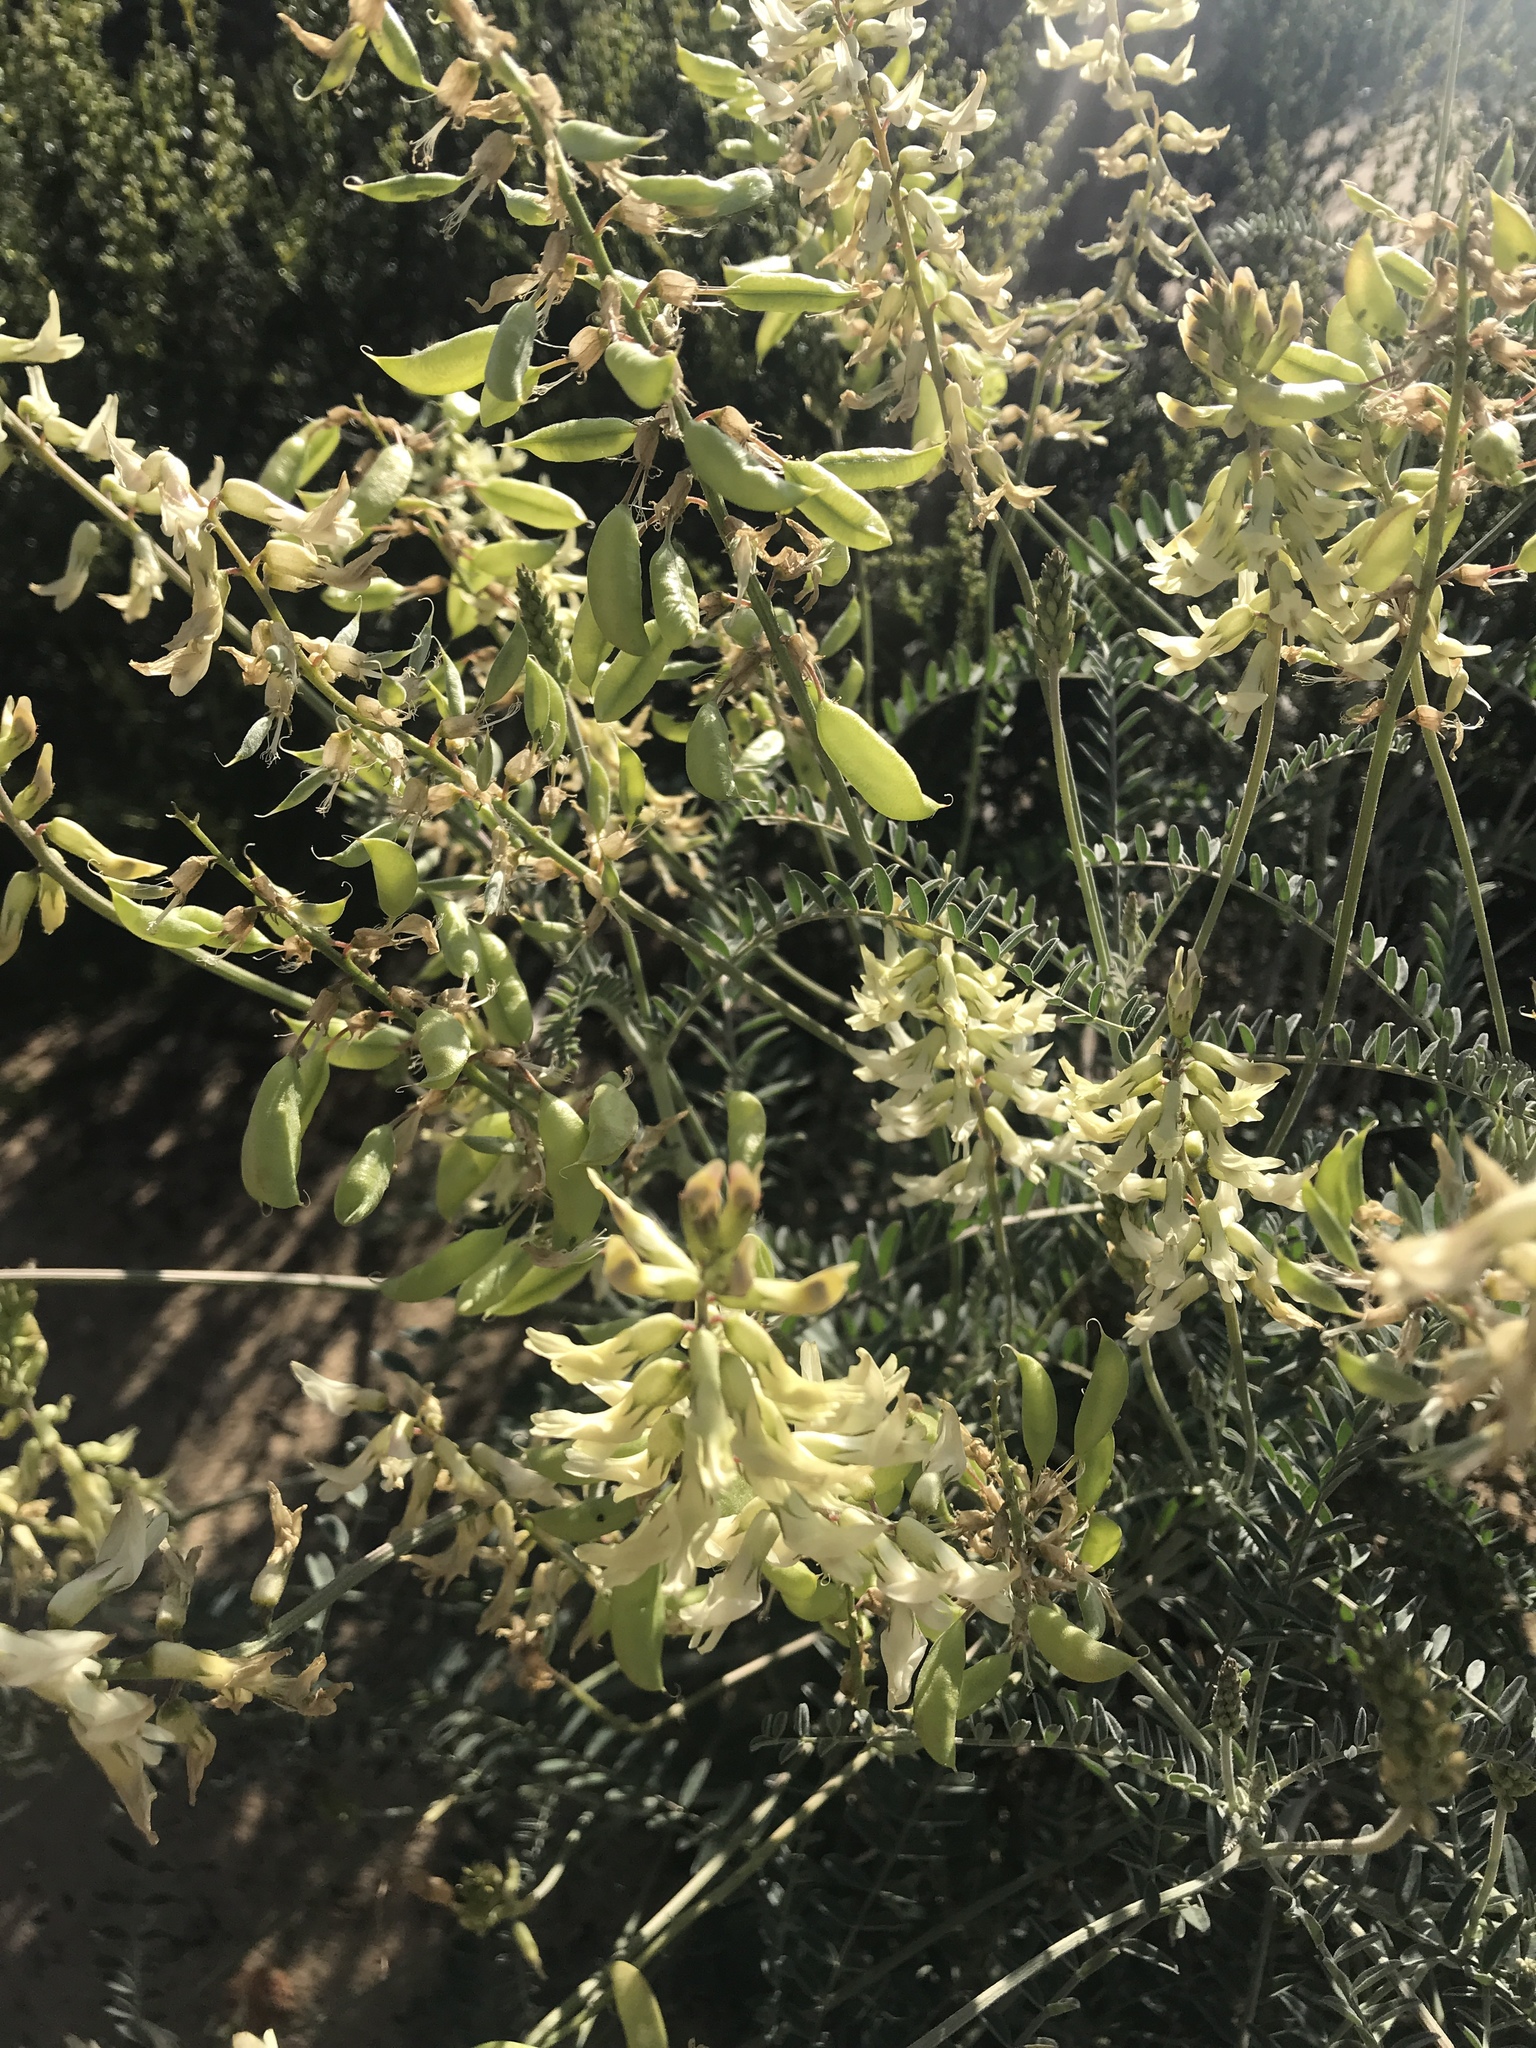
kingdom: Plantae
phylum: Tracheophyta
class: Magnoliopsida
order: Fabales
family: Fabaceae
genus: Astragalus
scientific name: Astragalus trichopodus
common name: Santa barbara milk-vetch
